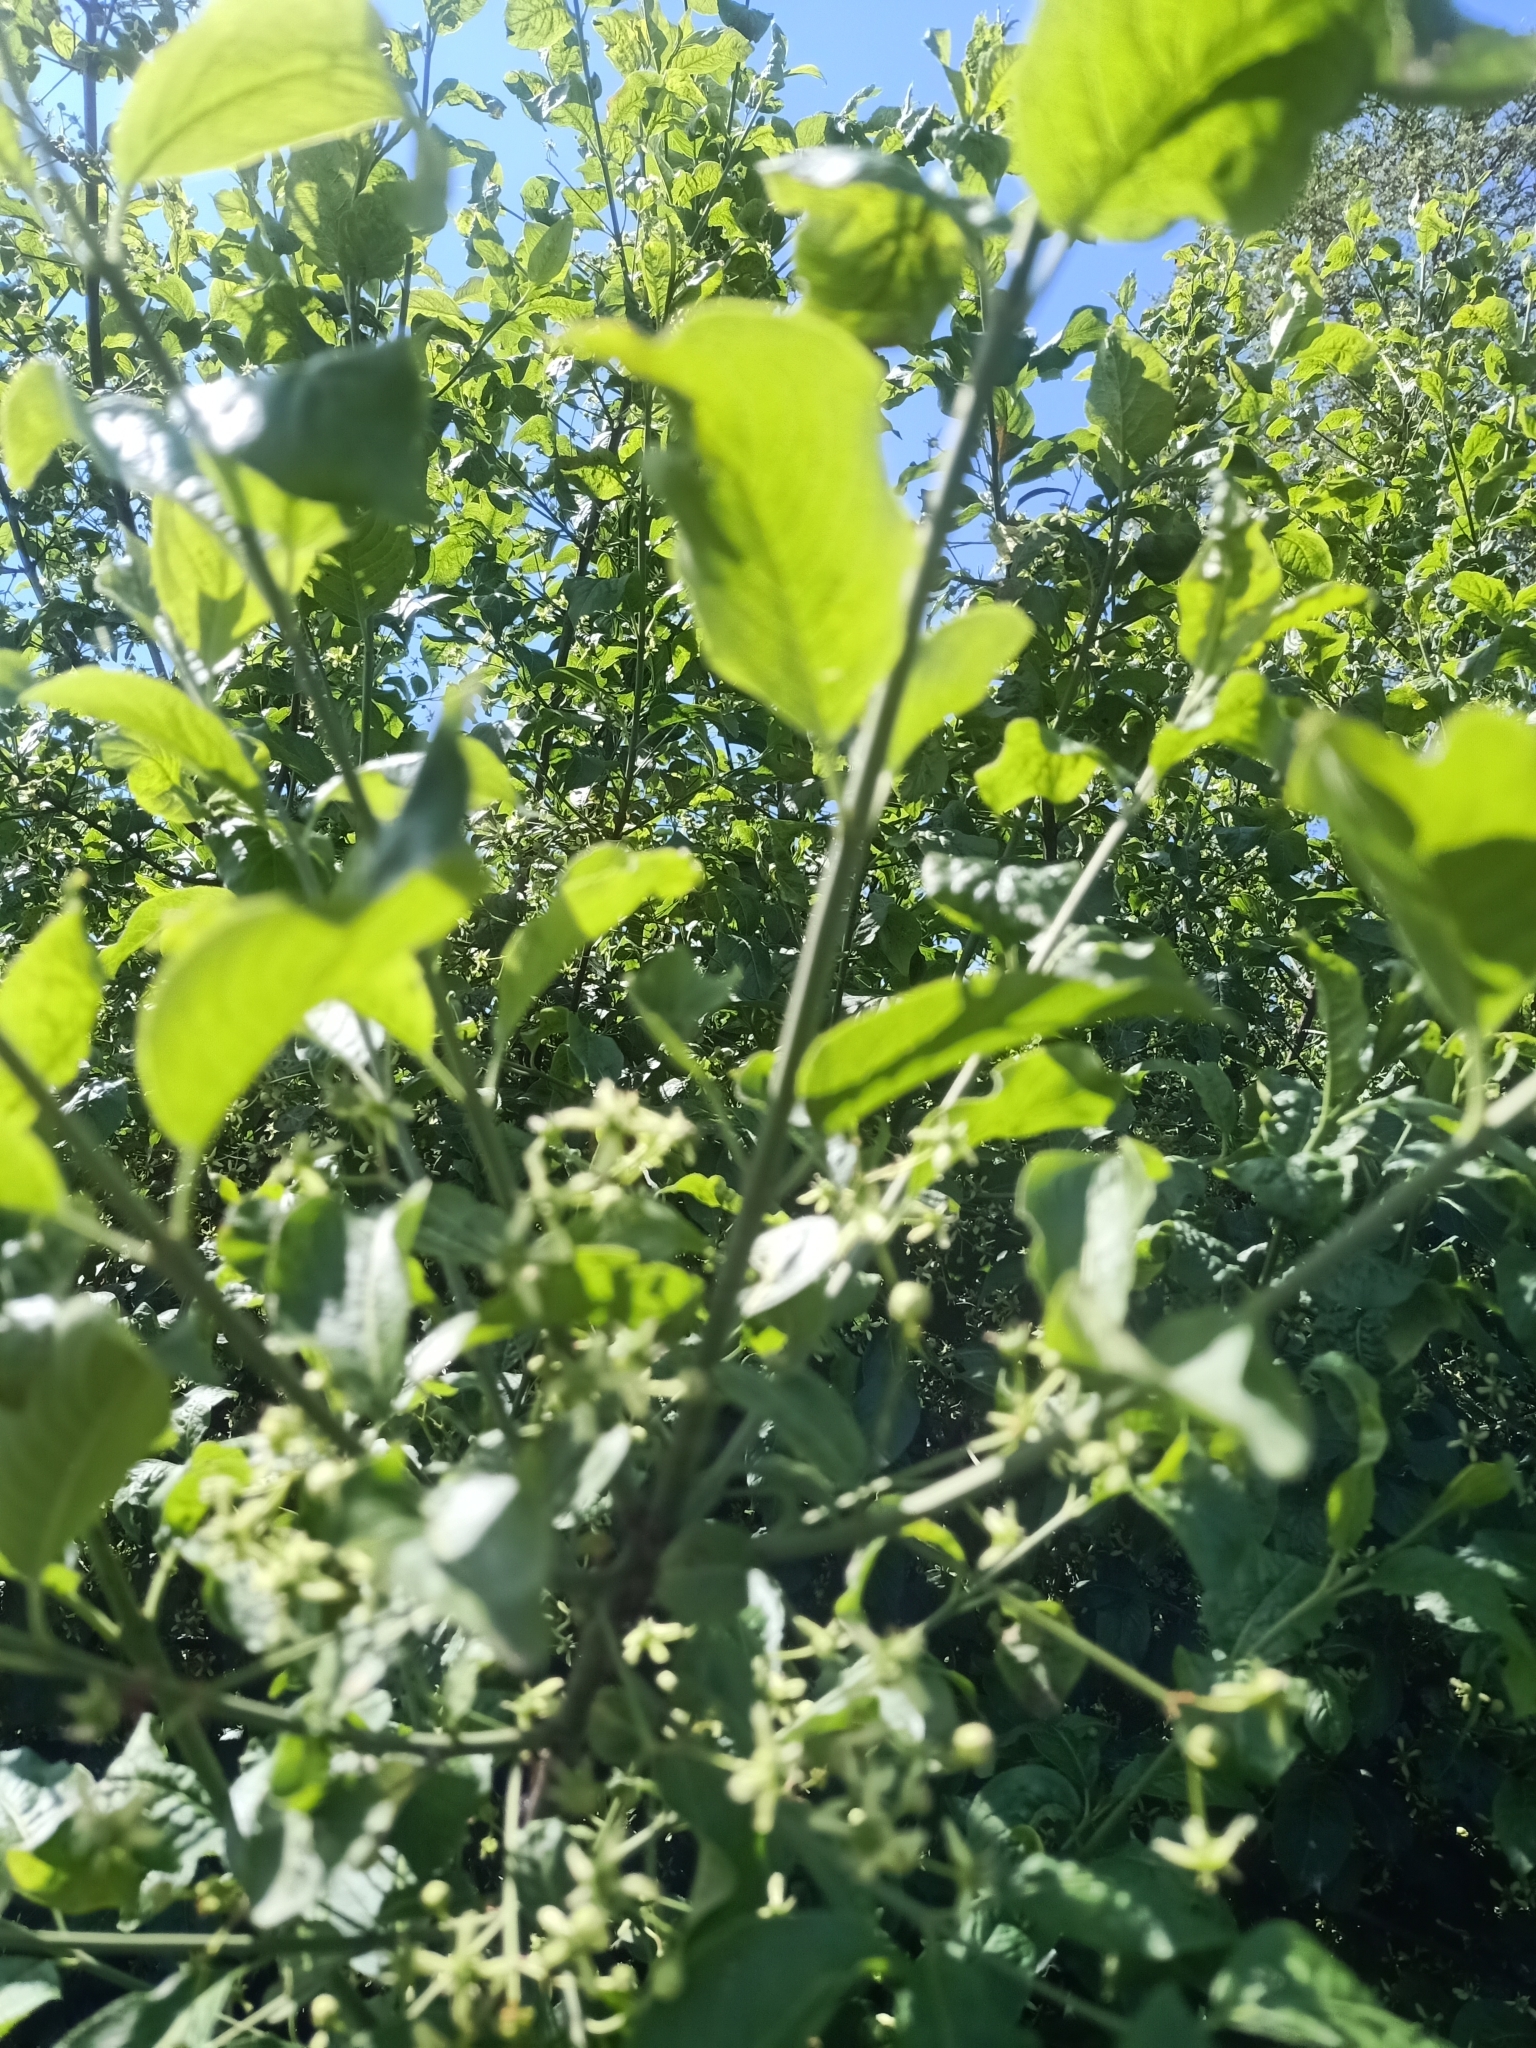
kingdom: Plantae
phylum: Tracheophyta
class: Magnoliopsida
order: Celastrales
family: Celastraceae
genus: Euonymus
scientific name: Euonymus europaeus
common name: Spindle
